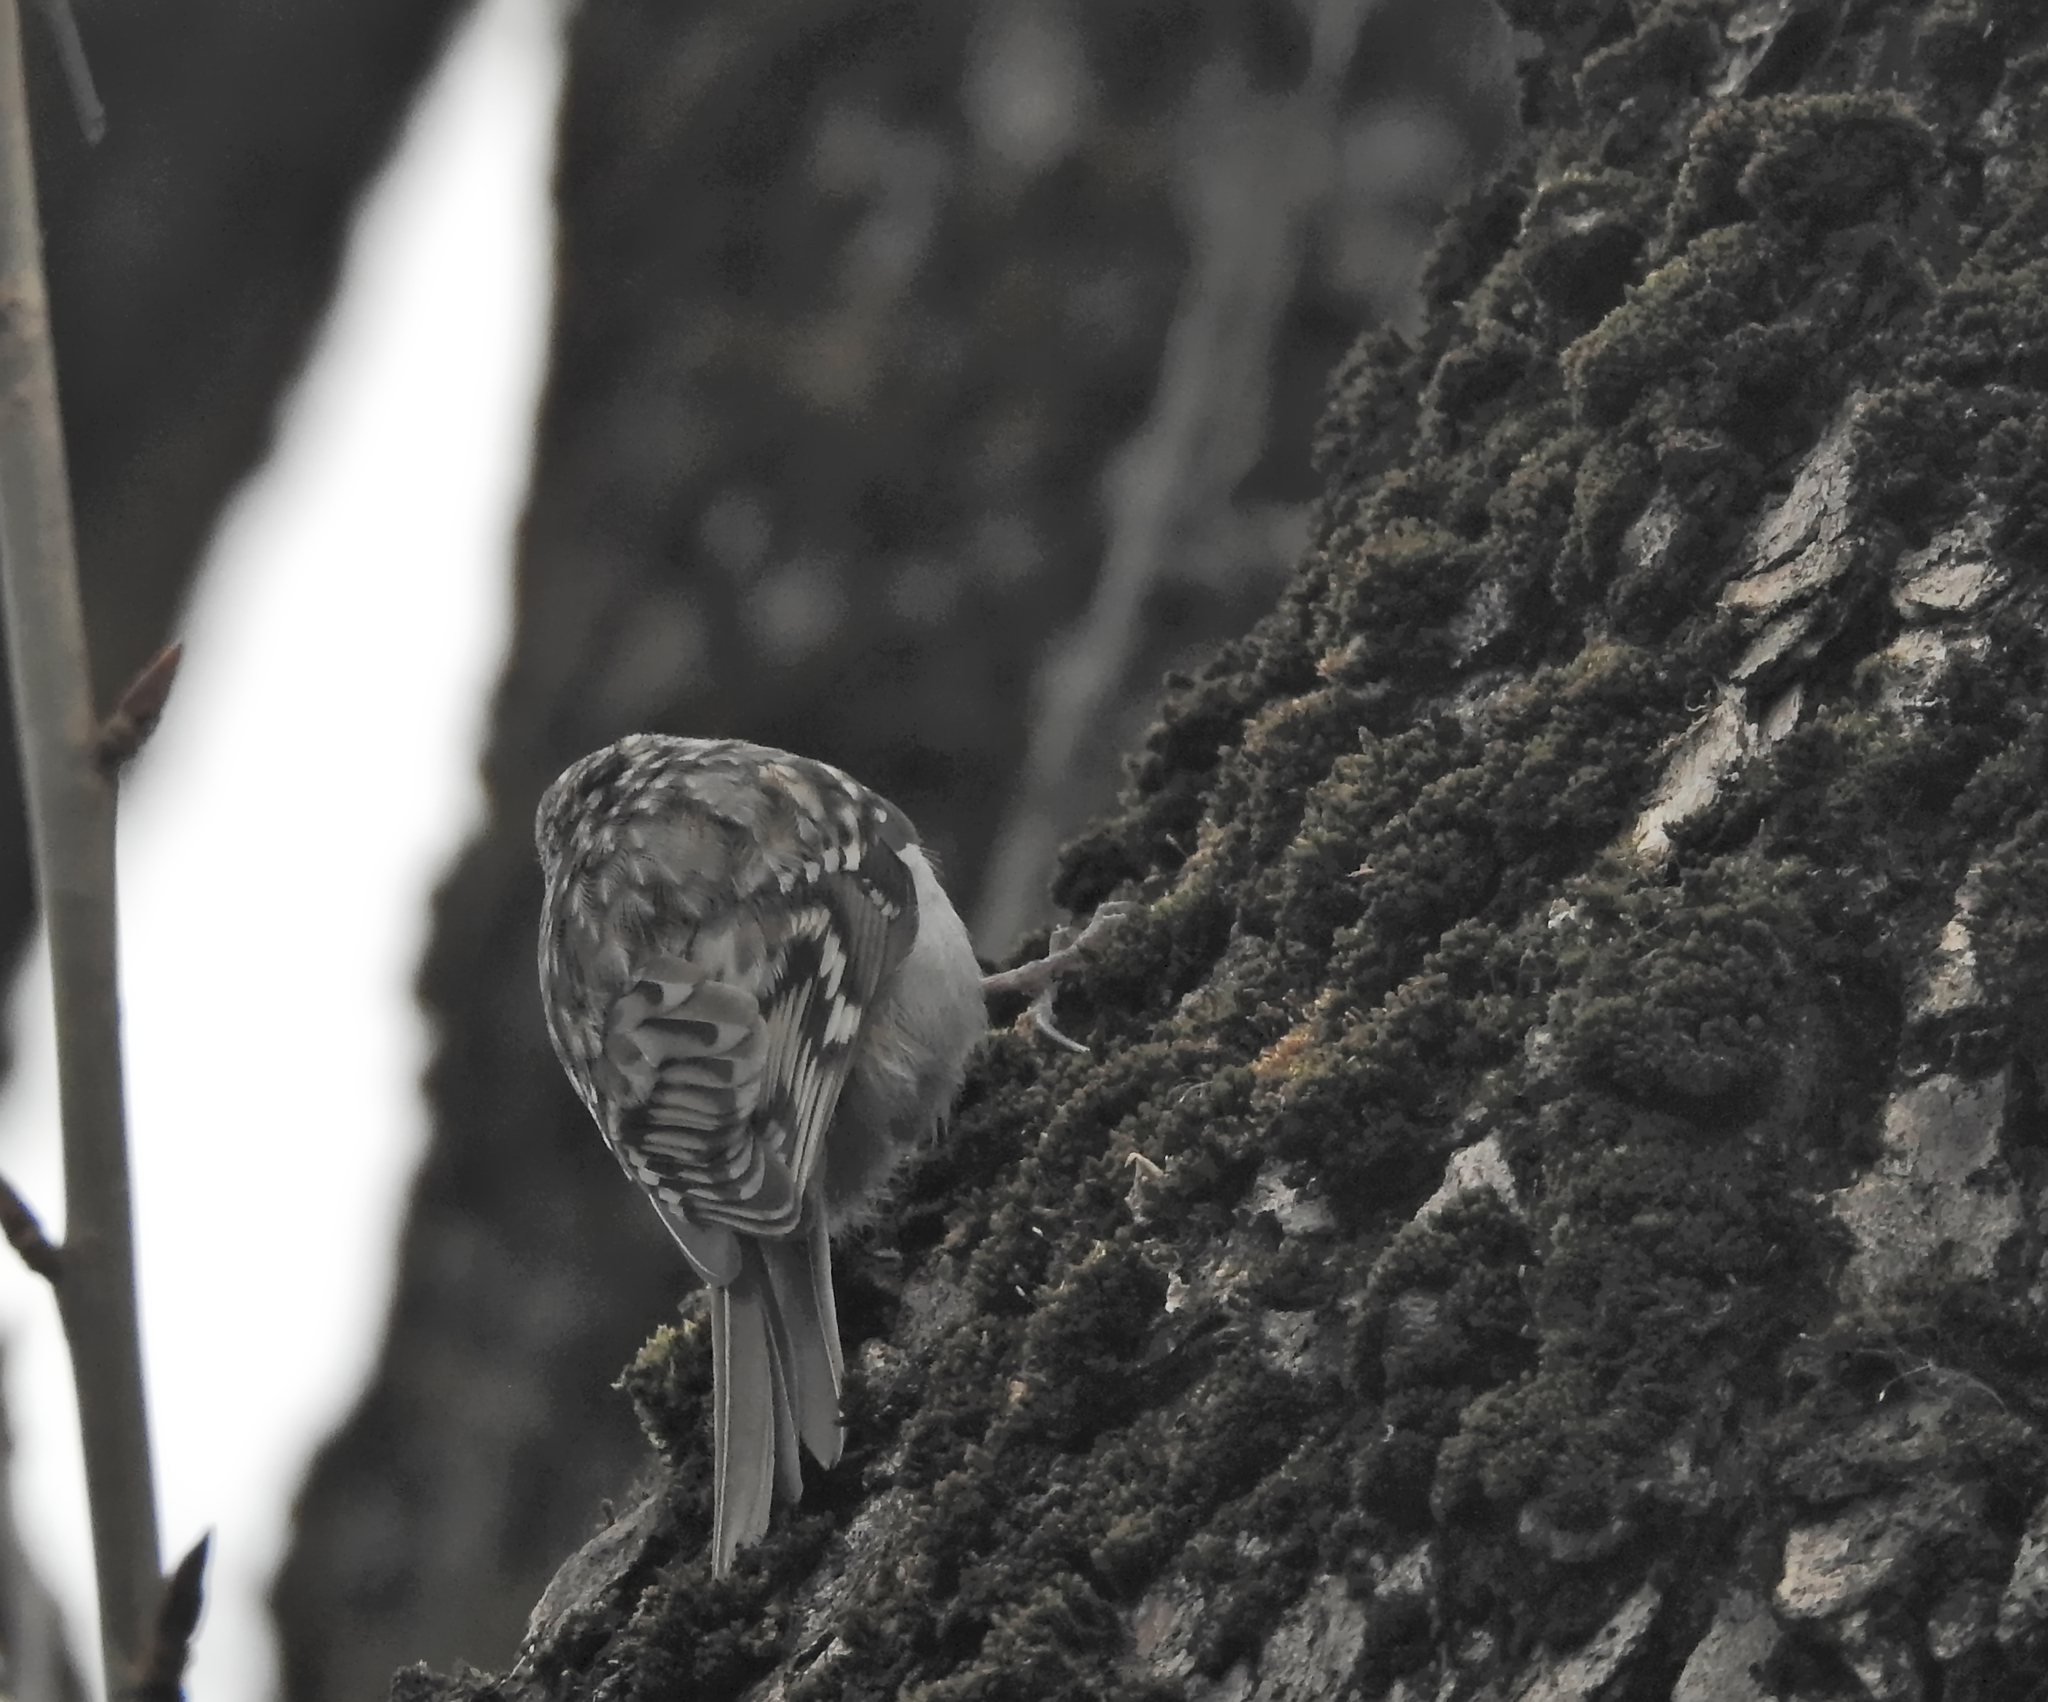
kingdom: Animalia
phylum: Chordata
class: Aves
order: Passeriformes
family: Certhiidae
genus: Certhia
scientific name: Certhia familiaris
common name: Eurasian treecreeper
